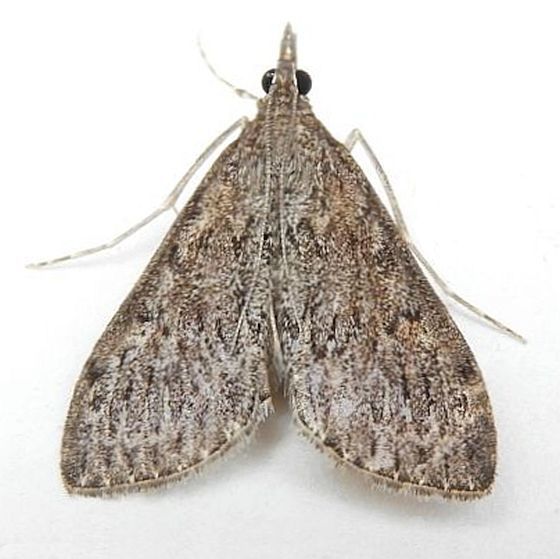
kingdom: Animalia
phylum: Arthropoda
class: Insecta
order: Lepidoptera
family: Crambidae
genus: Saucrobotys
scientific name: Saucrobotys fumoferalis
